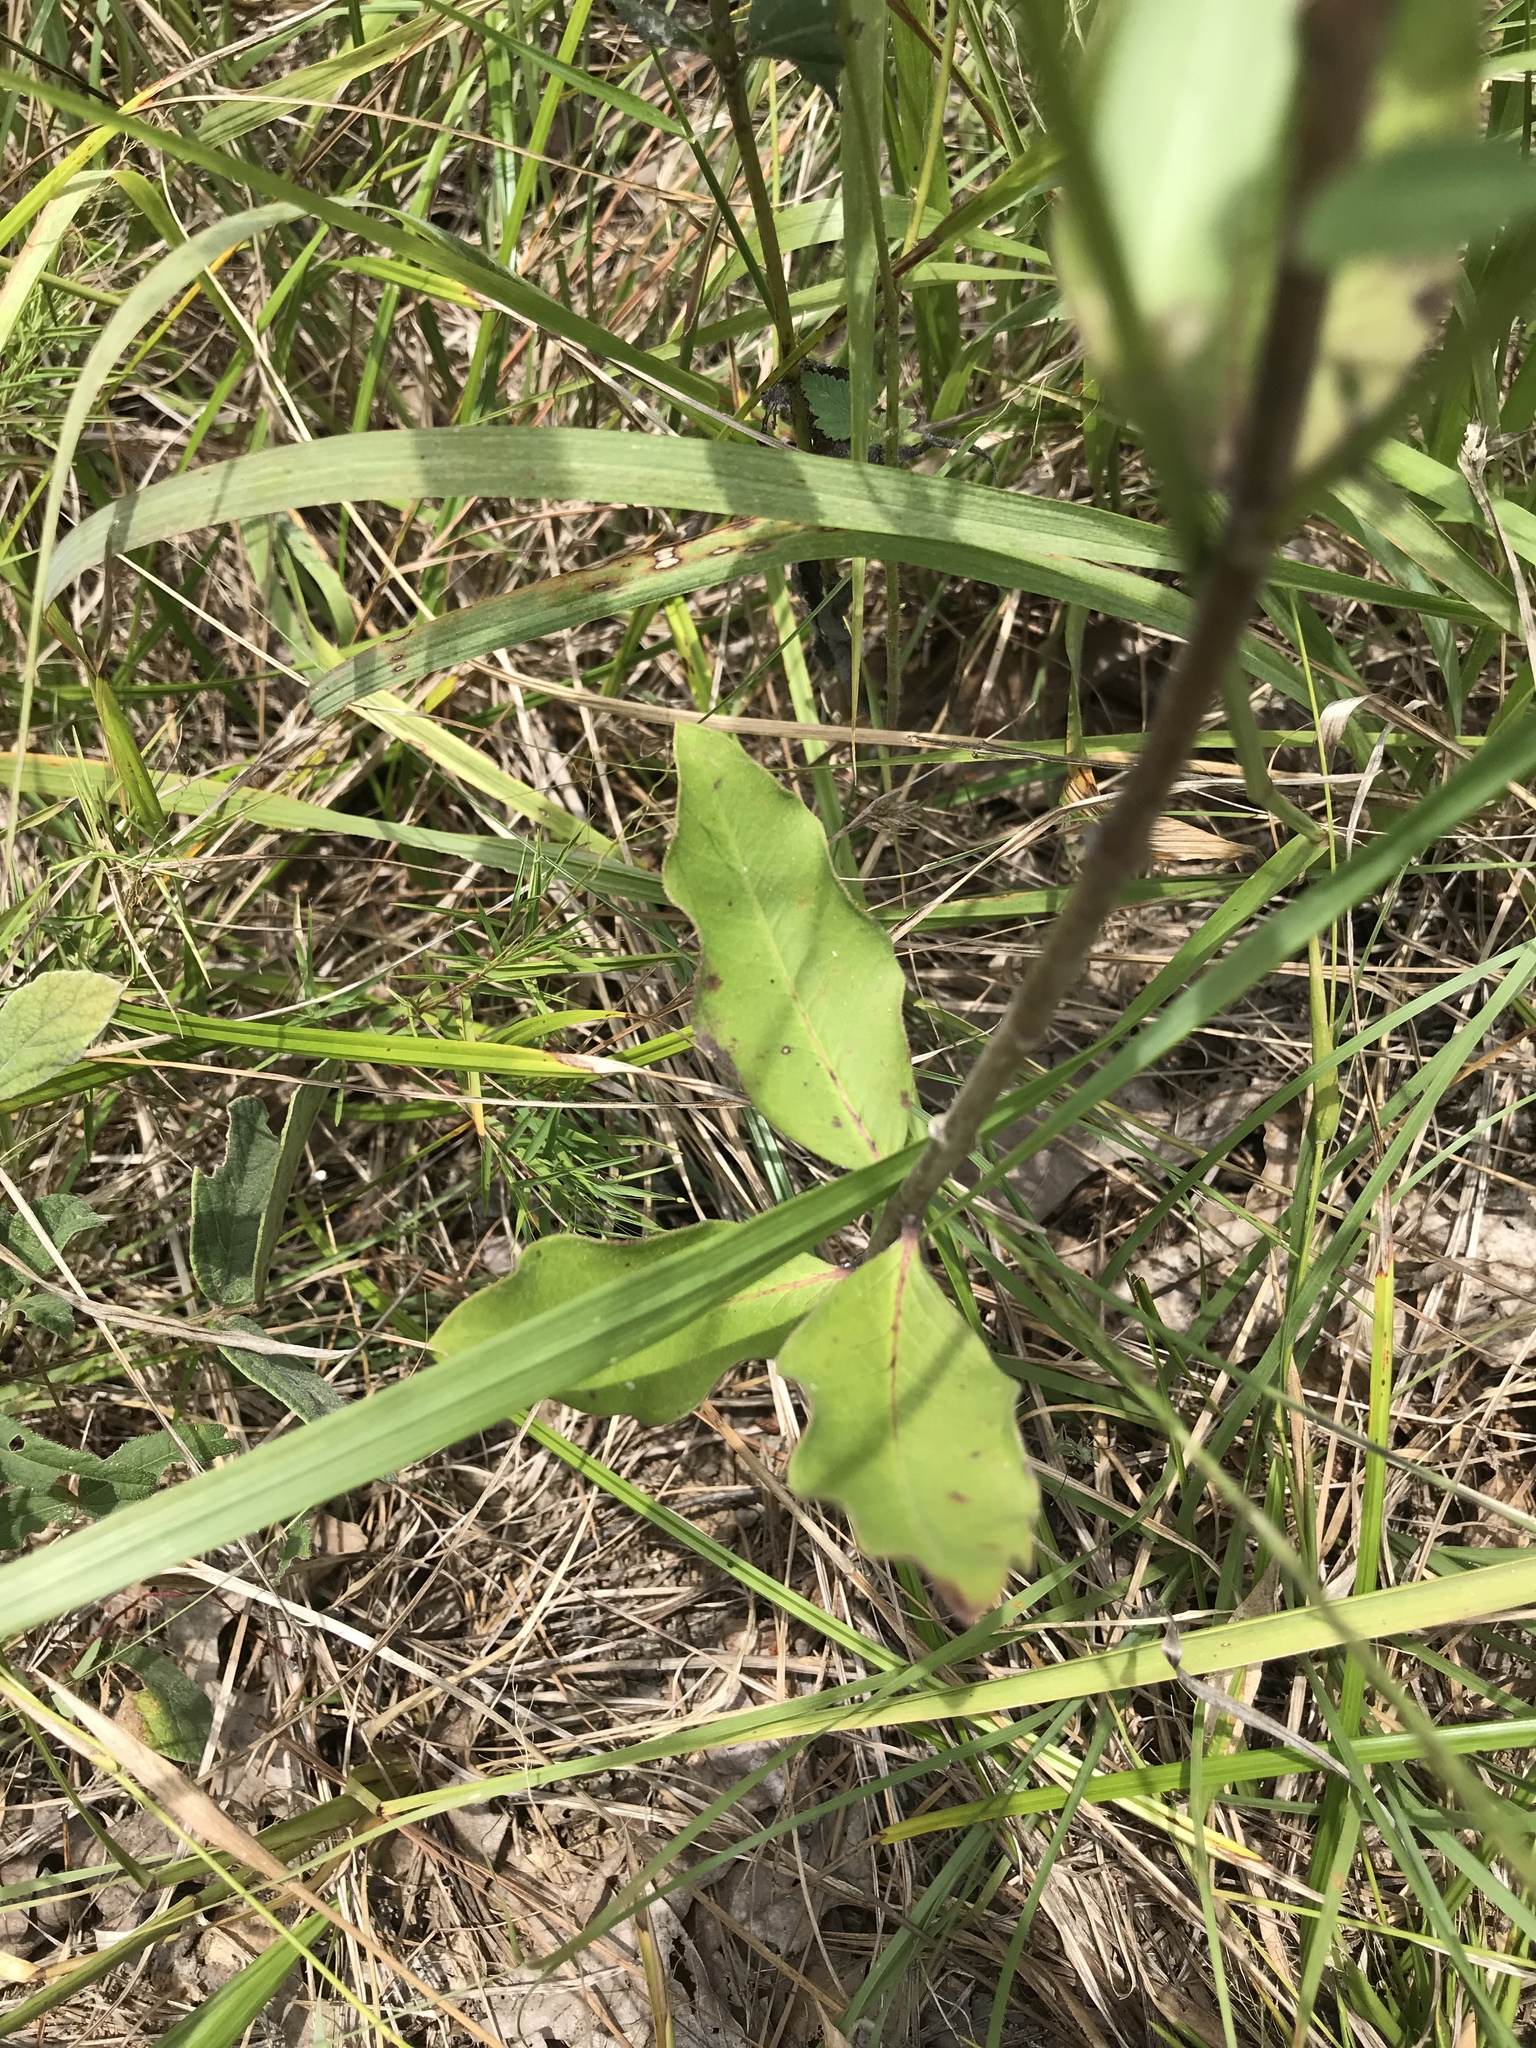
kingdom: Plantae
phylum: Tracheophyta
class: Magnoliopsida
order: Gentianales
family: Apocynaceae
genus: Asclepias
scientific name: Asclepias viridiflora
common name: Green comet milkweed
